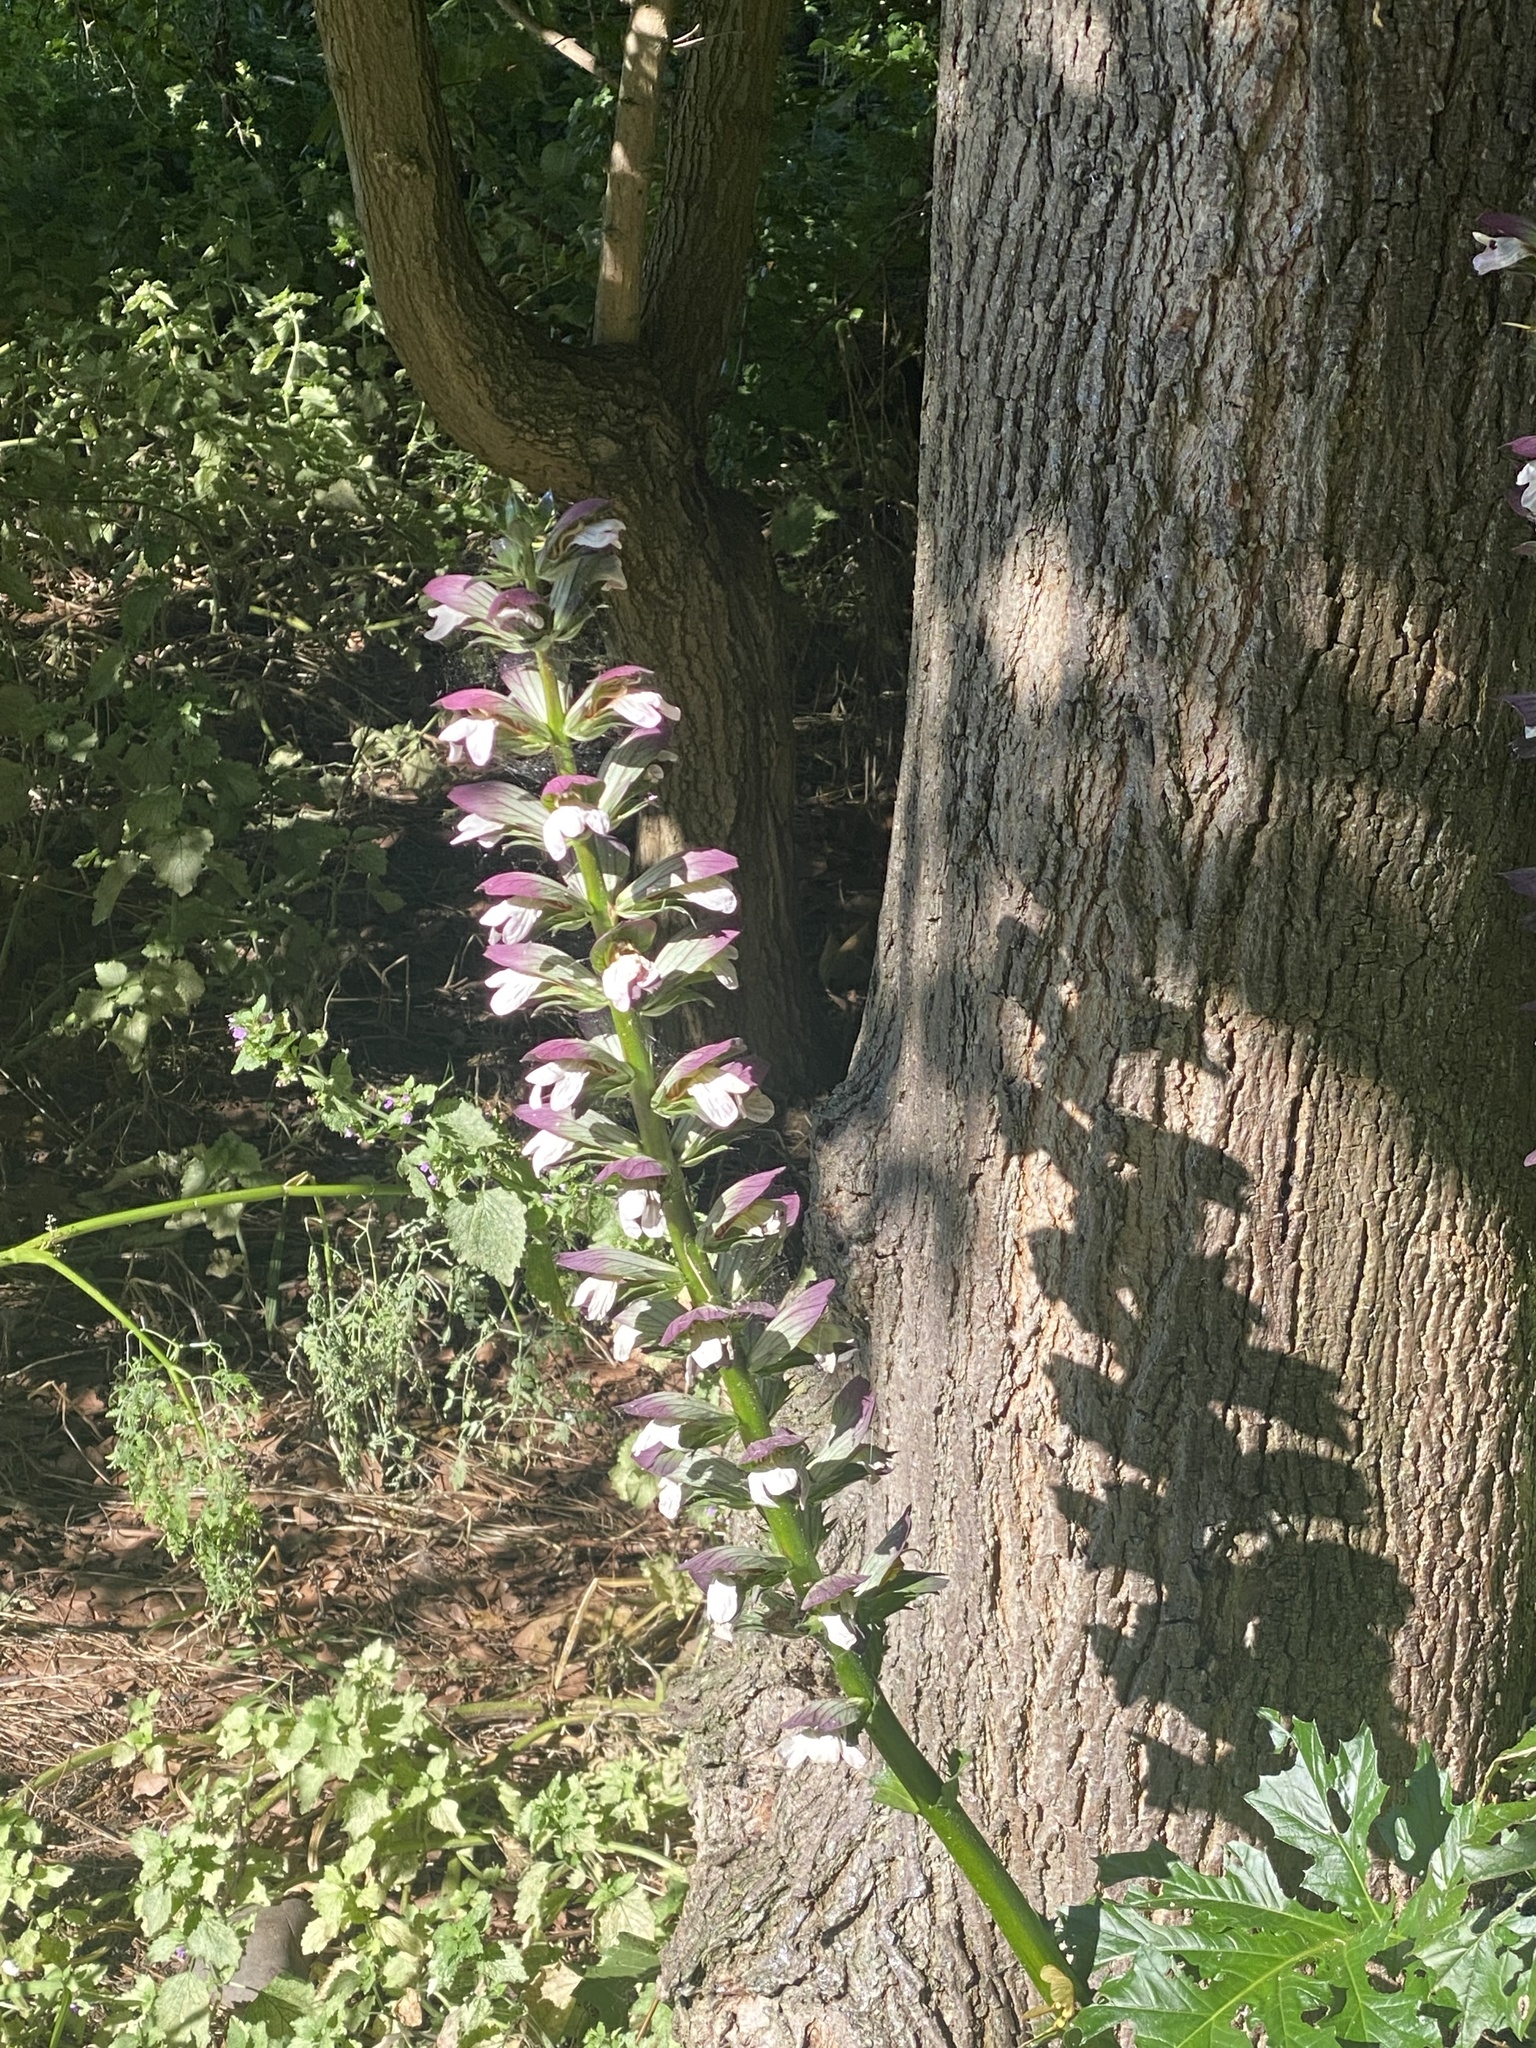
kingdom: Plantae
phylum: Tracheophyta
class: Magnoliopsida
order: Lamiales
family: Acanthaceae
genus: Acanthus
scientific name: Acanthus mollis
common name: Bear's-breech
